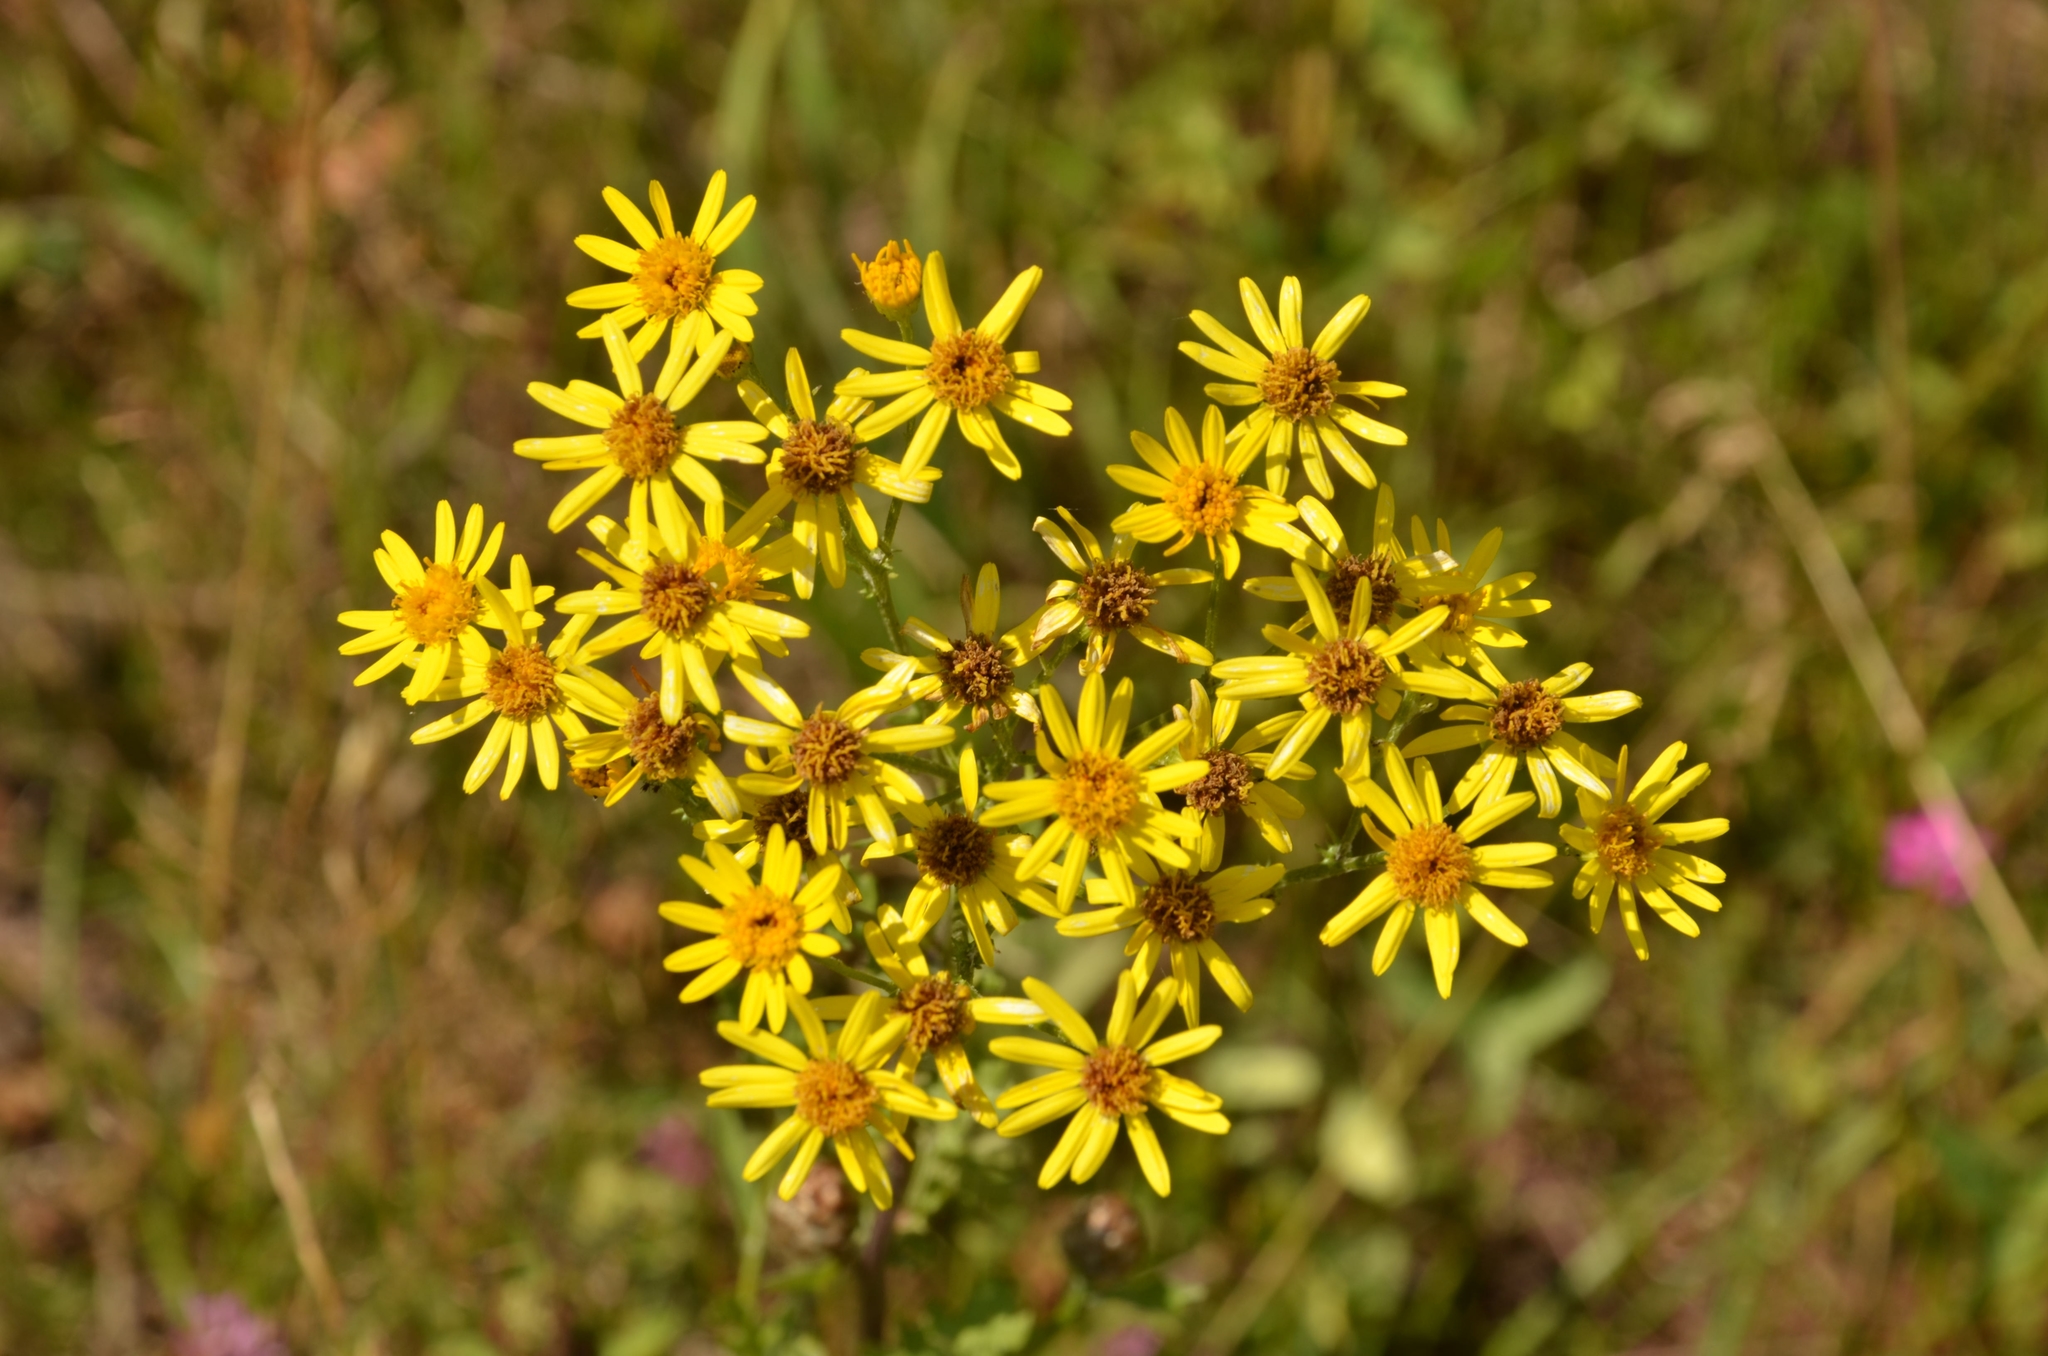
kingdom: Plantae
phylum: Tracheophyta
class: Magnoliopsida
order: Asterales
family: Asteraceae
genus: Jacobaea
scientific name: Jacobaea vulgaris
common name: Stinking willie
